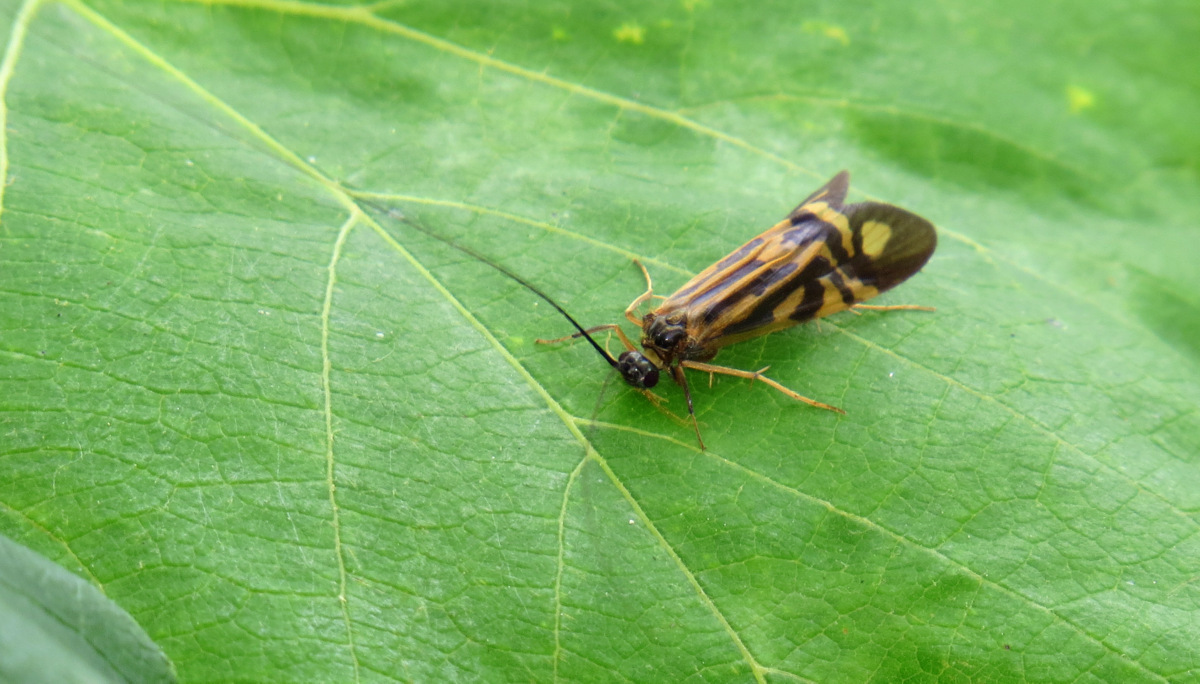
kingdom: Animalia
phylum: Arthropoda
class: Insecta
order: Trichoptera
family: Hydropsychidae
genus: Macrostemum
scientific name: Macrostemum zebratum
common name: Zebra caddisfly
